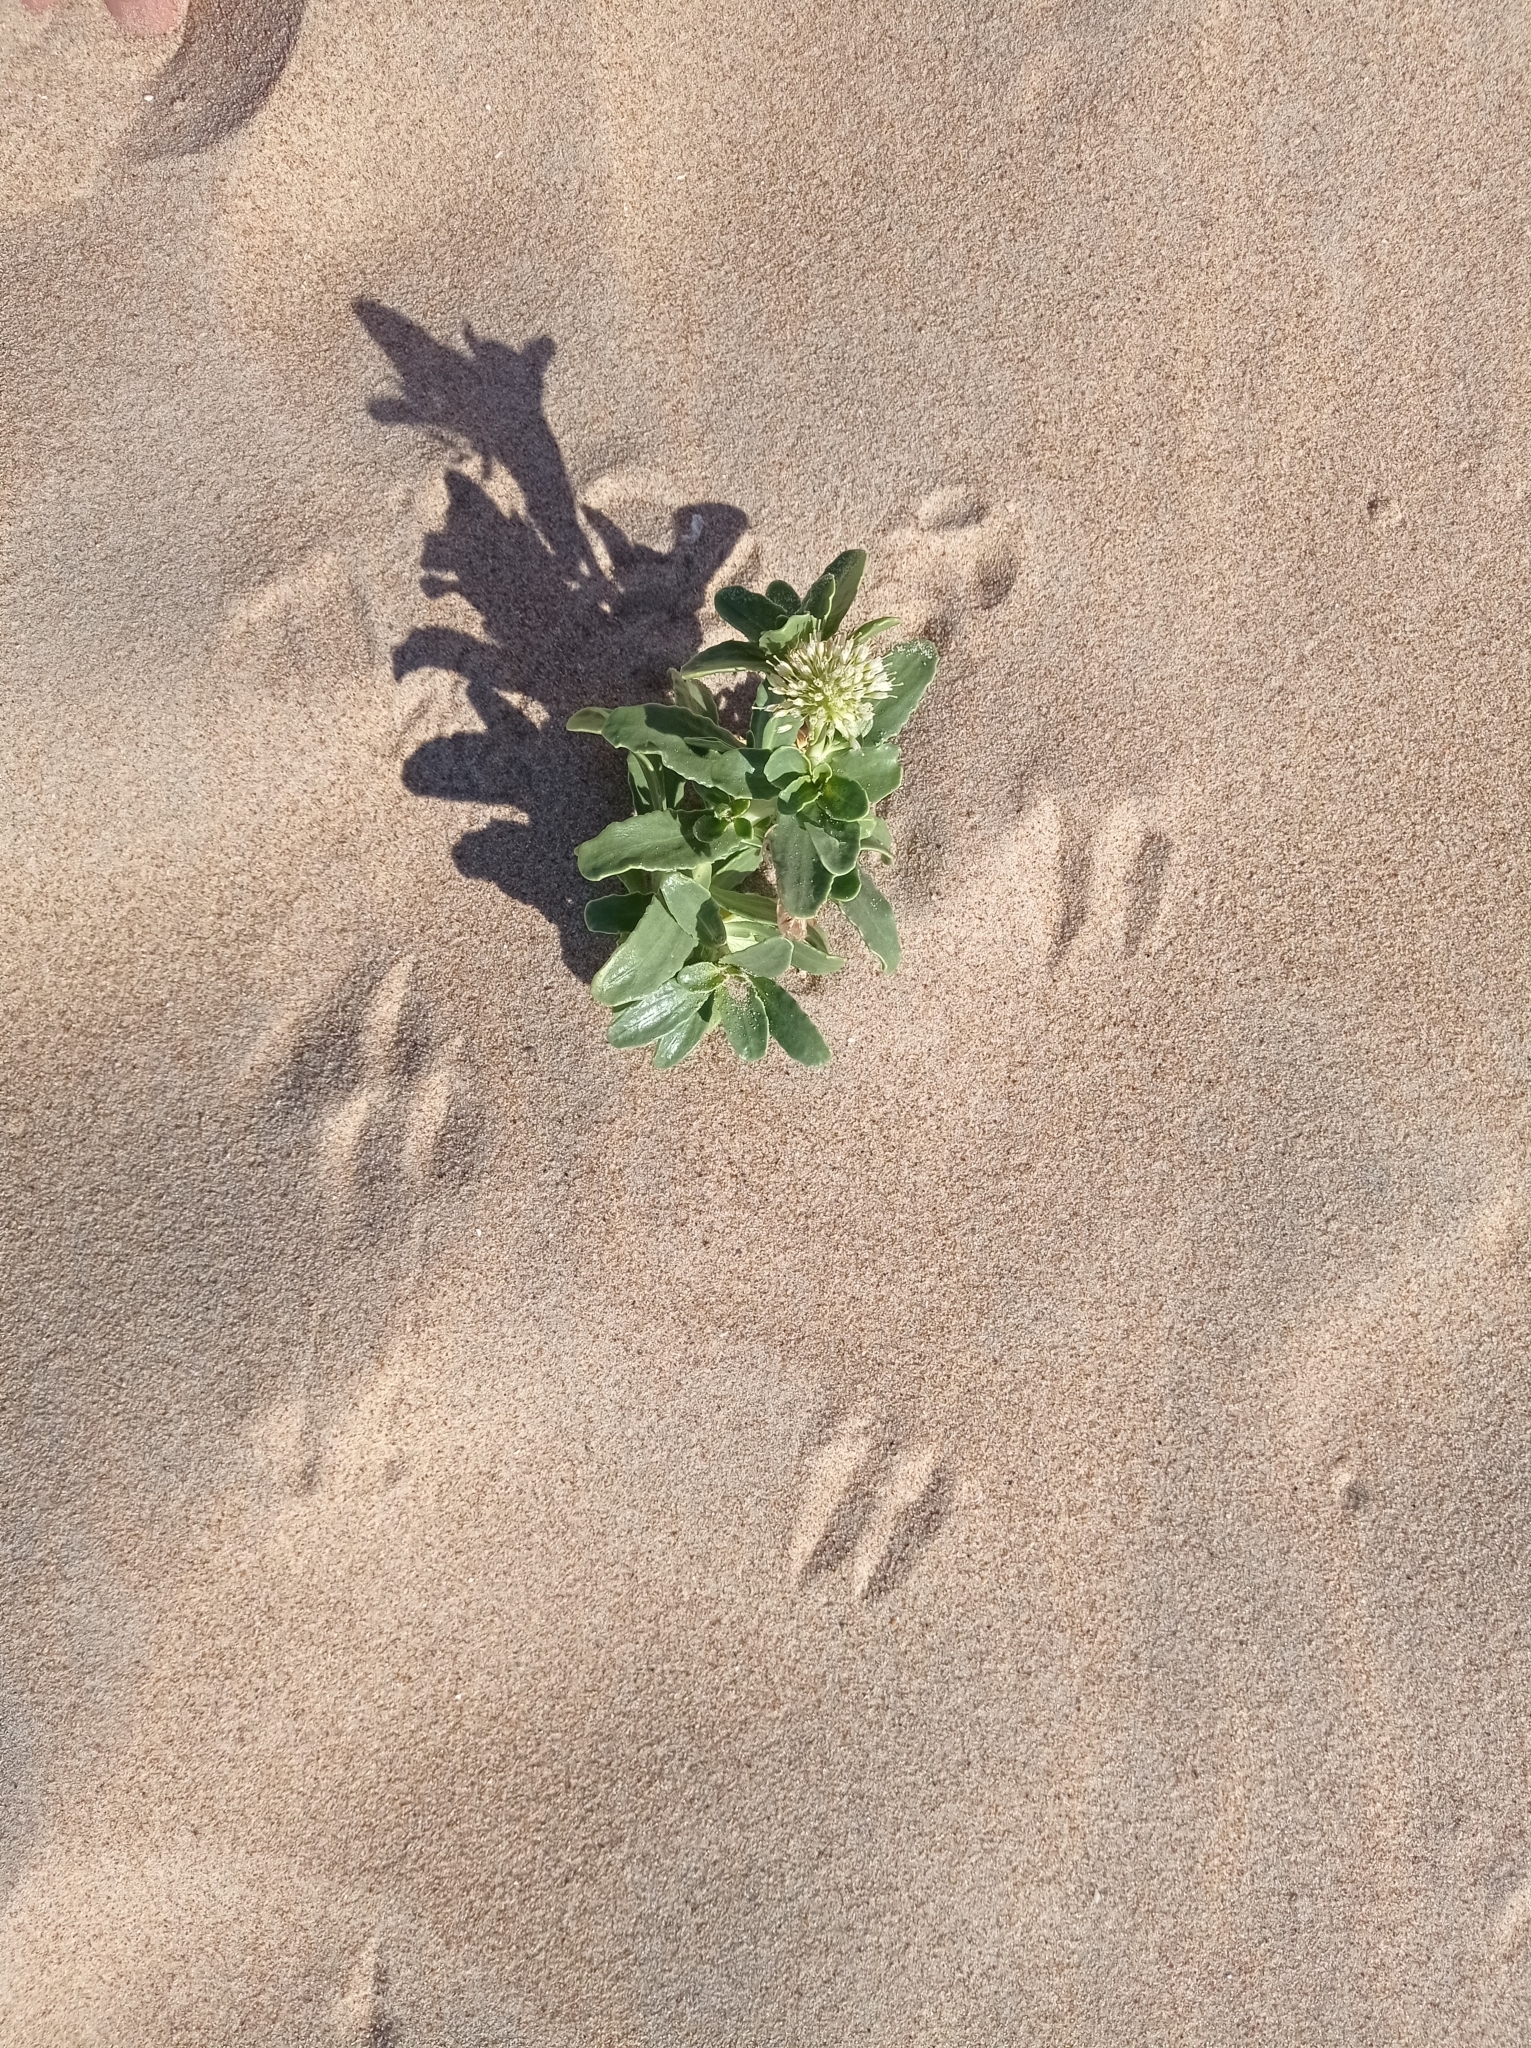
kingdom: Plantae
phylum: Tracheophyta
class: Magnoliopsida
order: Asterales
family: Calyceraceae
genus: Calycera
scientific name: Calycera crassifolia
